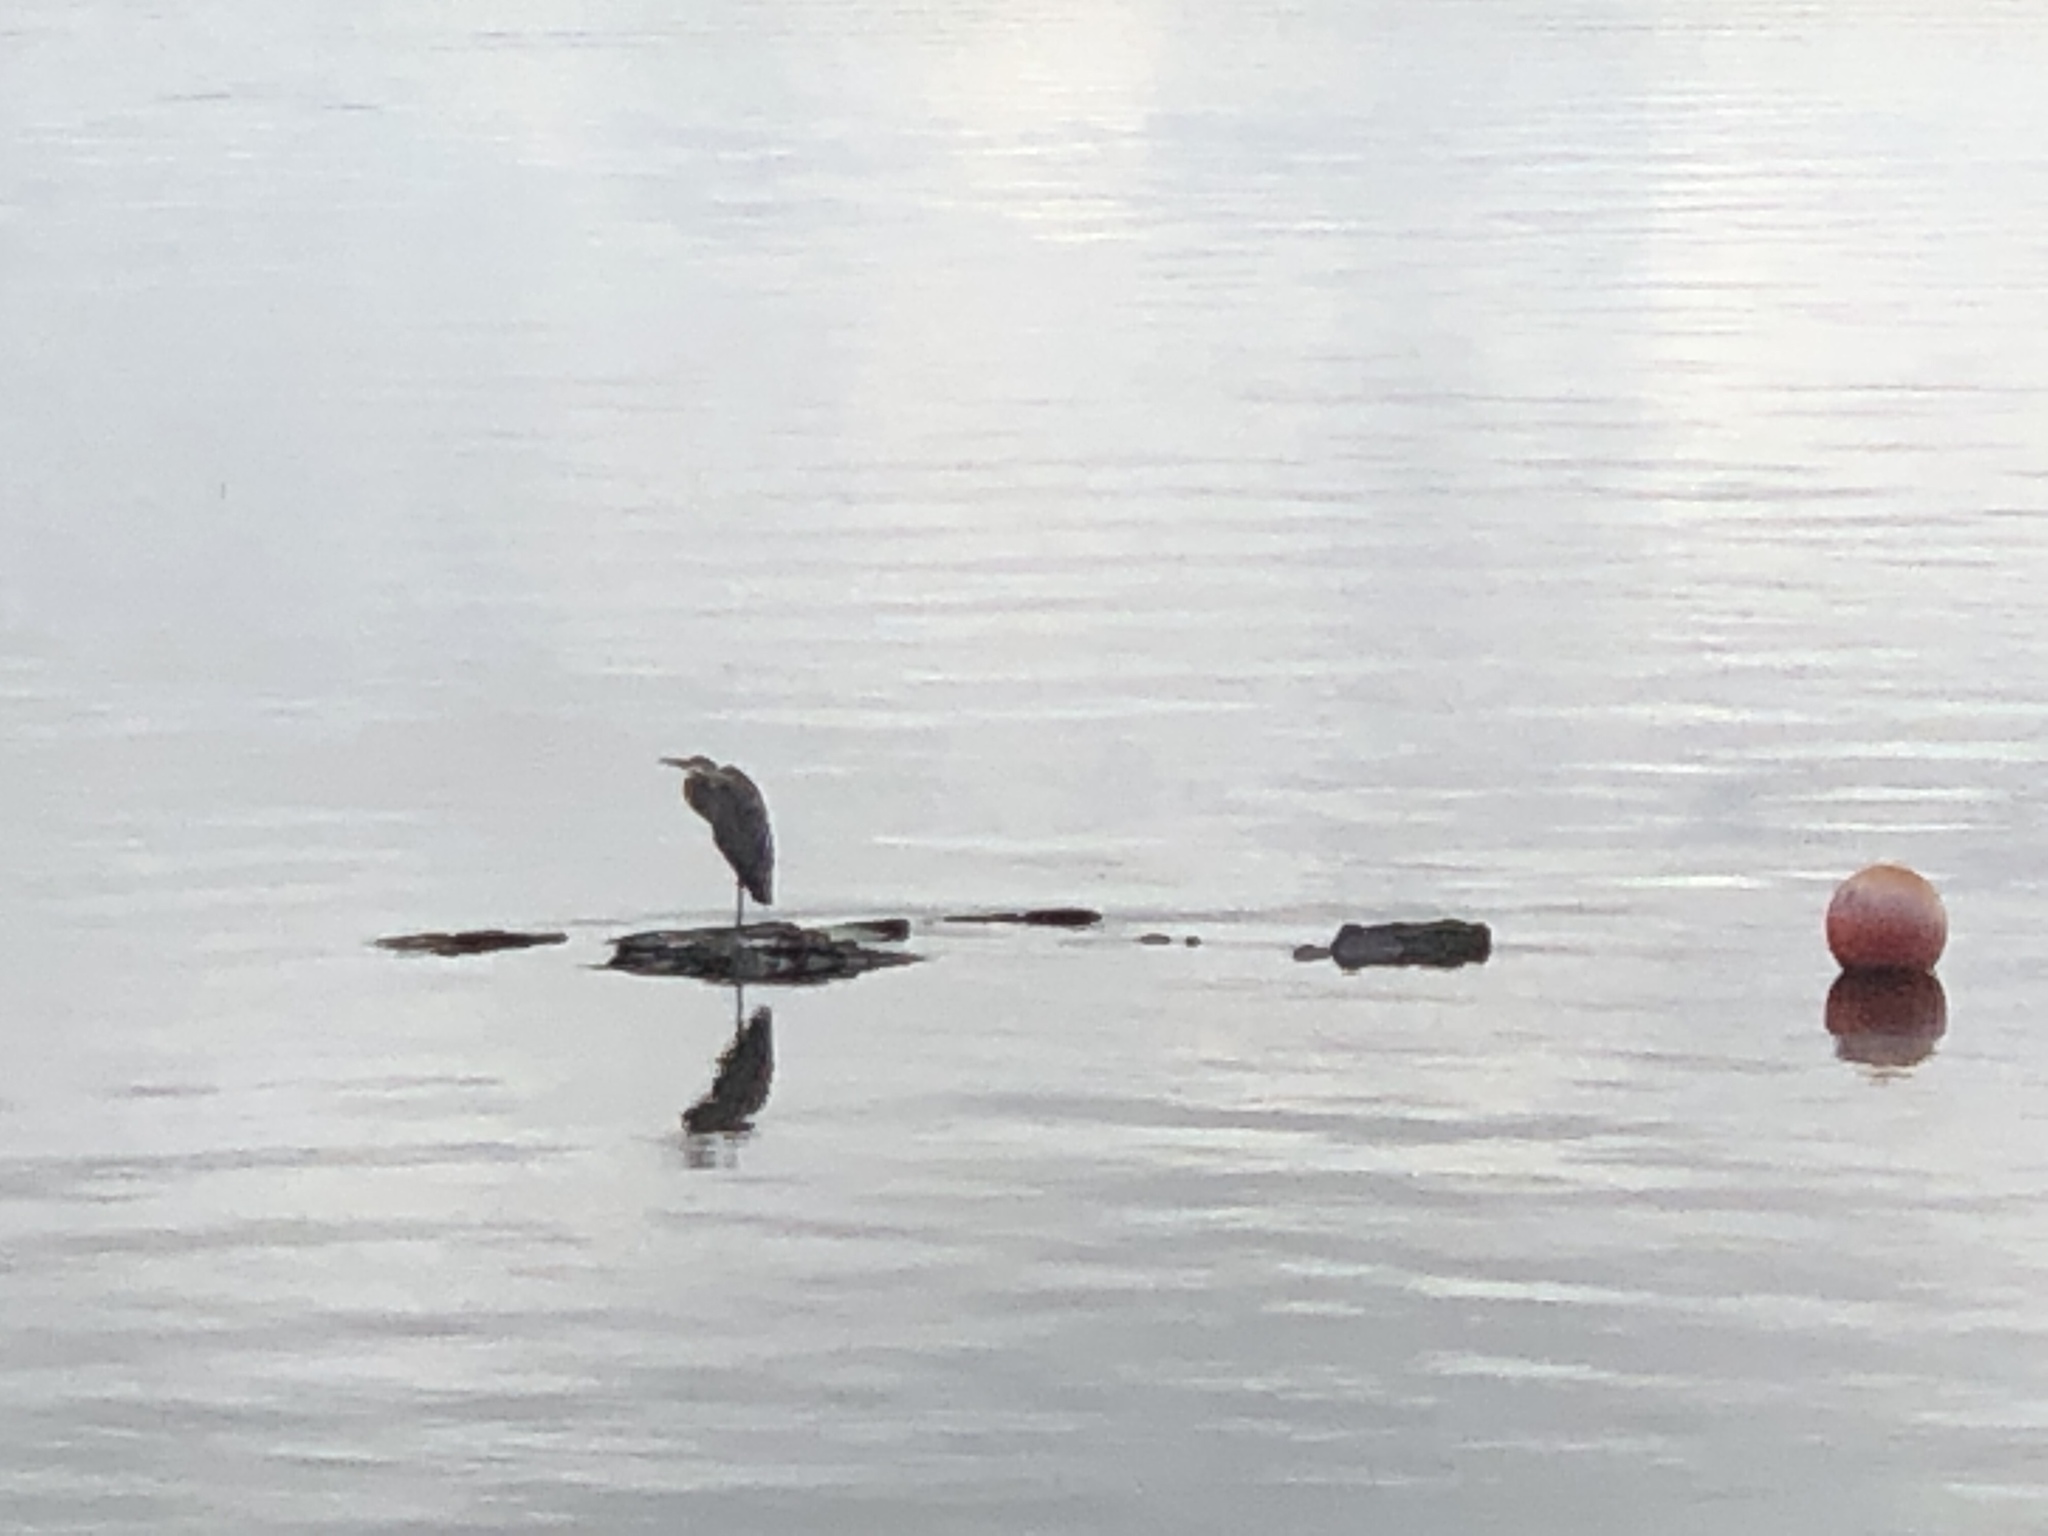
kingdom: Animalia
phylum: Chordata
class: Aves
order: Pelecaniformes
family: Ardeidae
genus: Ardea
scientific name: Ardea herodias
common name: Great blue heron
